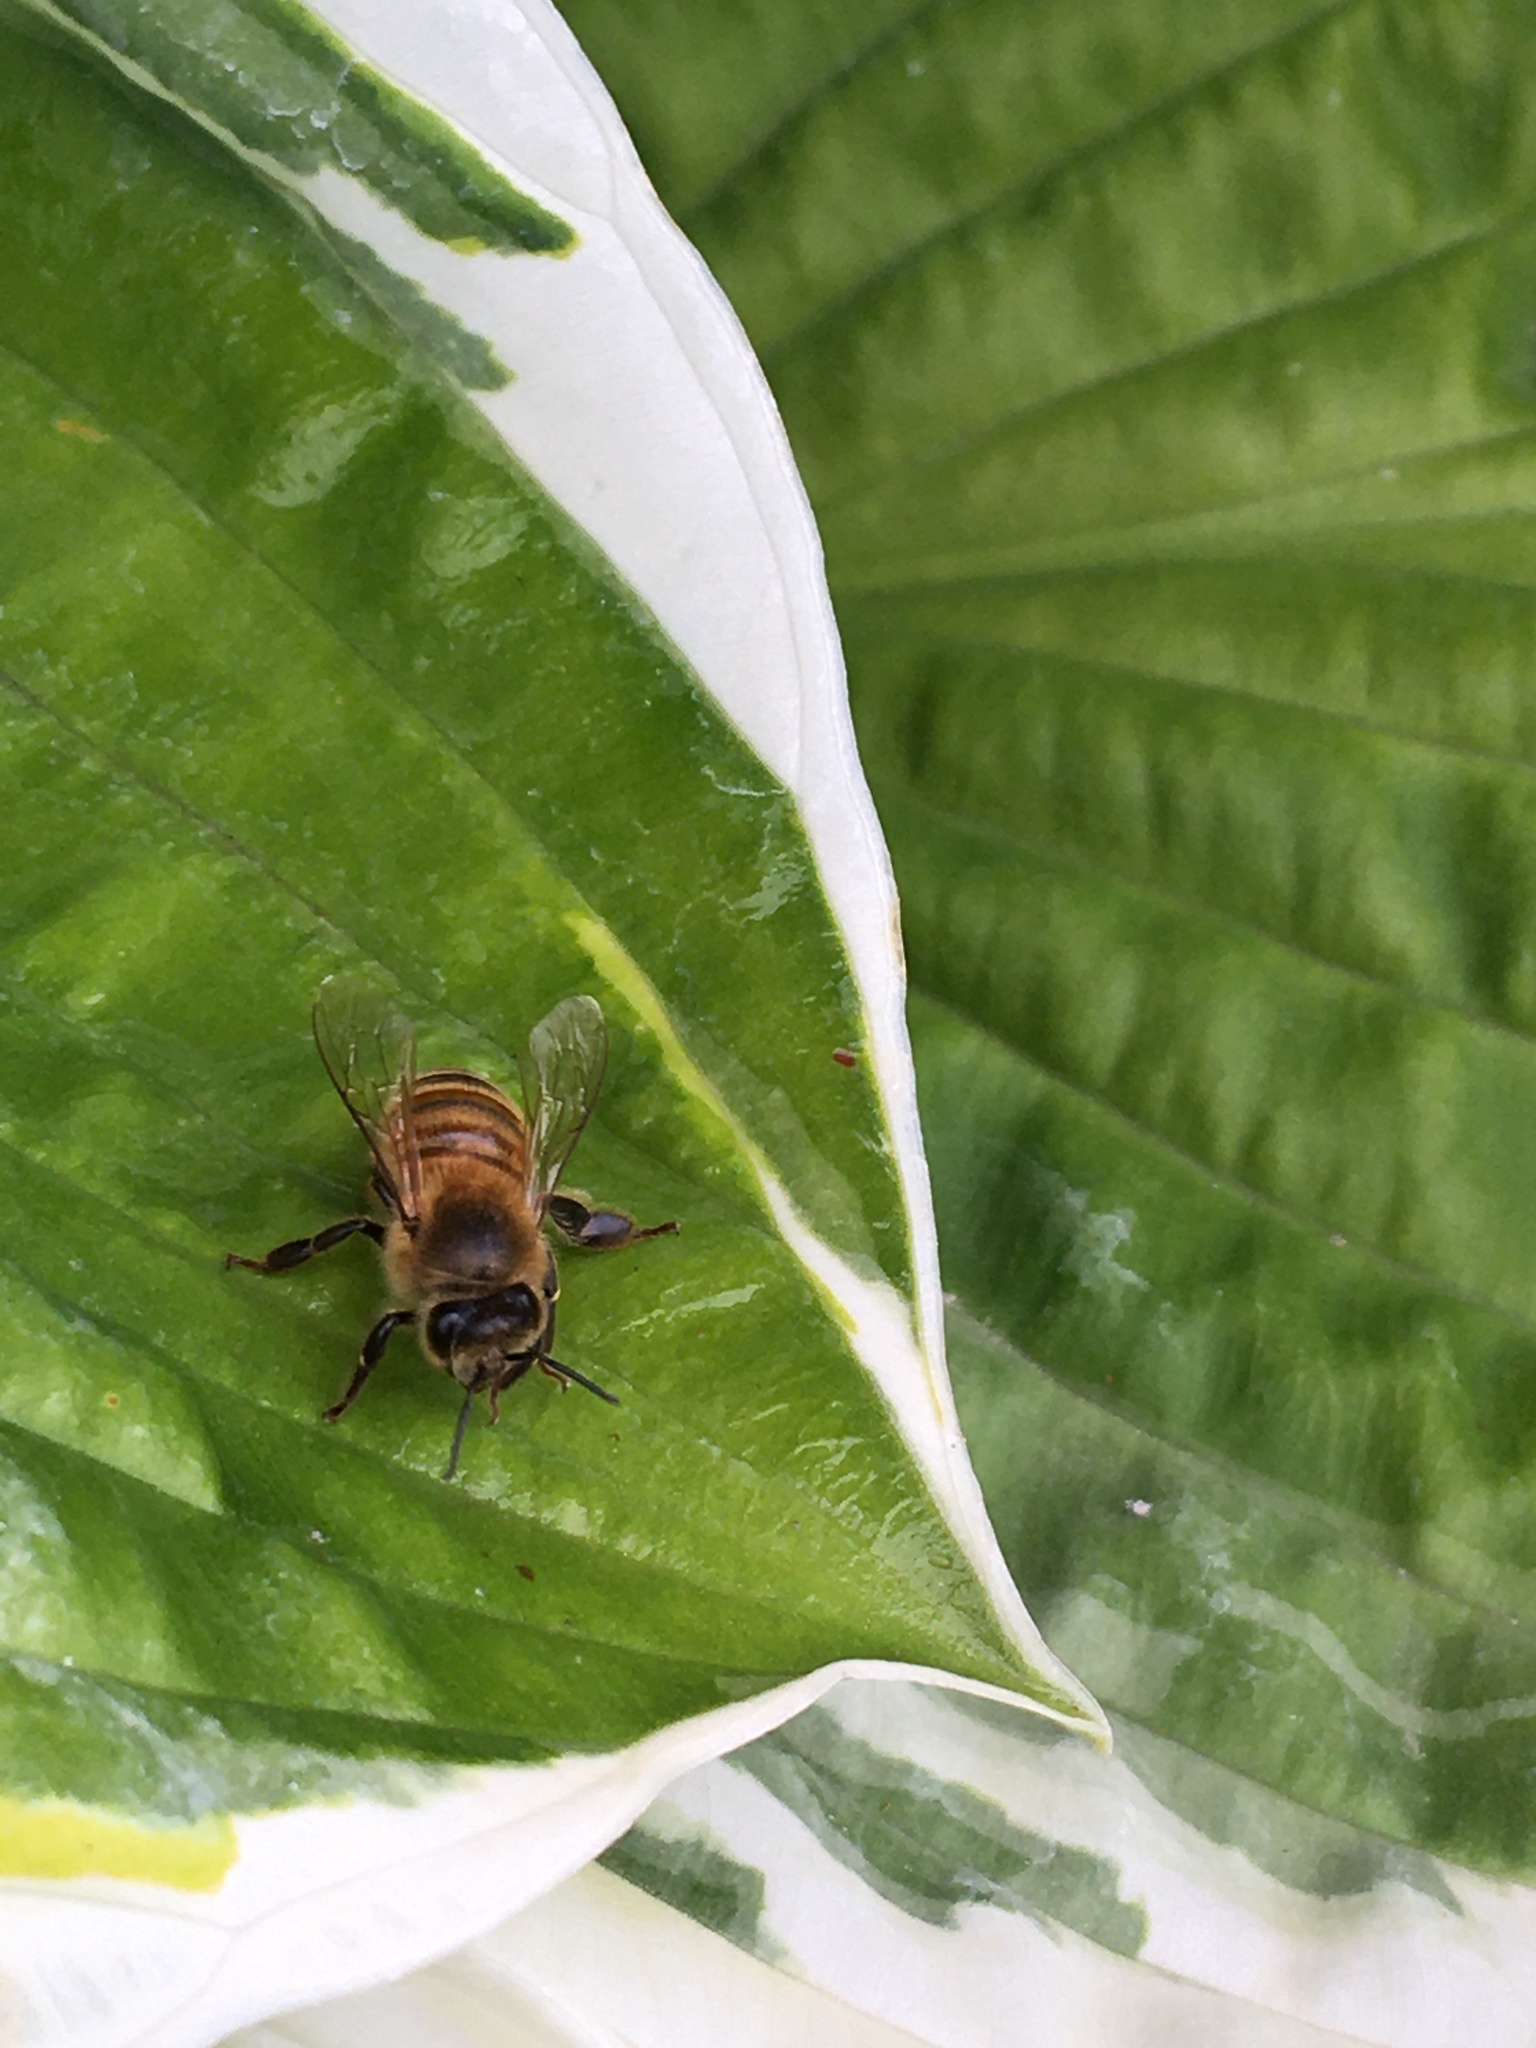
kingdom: Animalia
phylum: Arthropoda
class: Insecta
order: Hymenoptera
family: Apidae
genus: Apis
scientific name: Apis mellifera
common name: Honey bee
